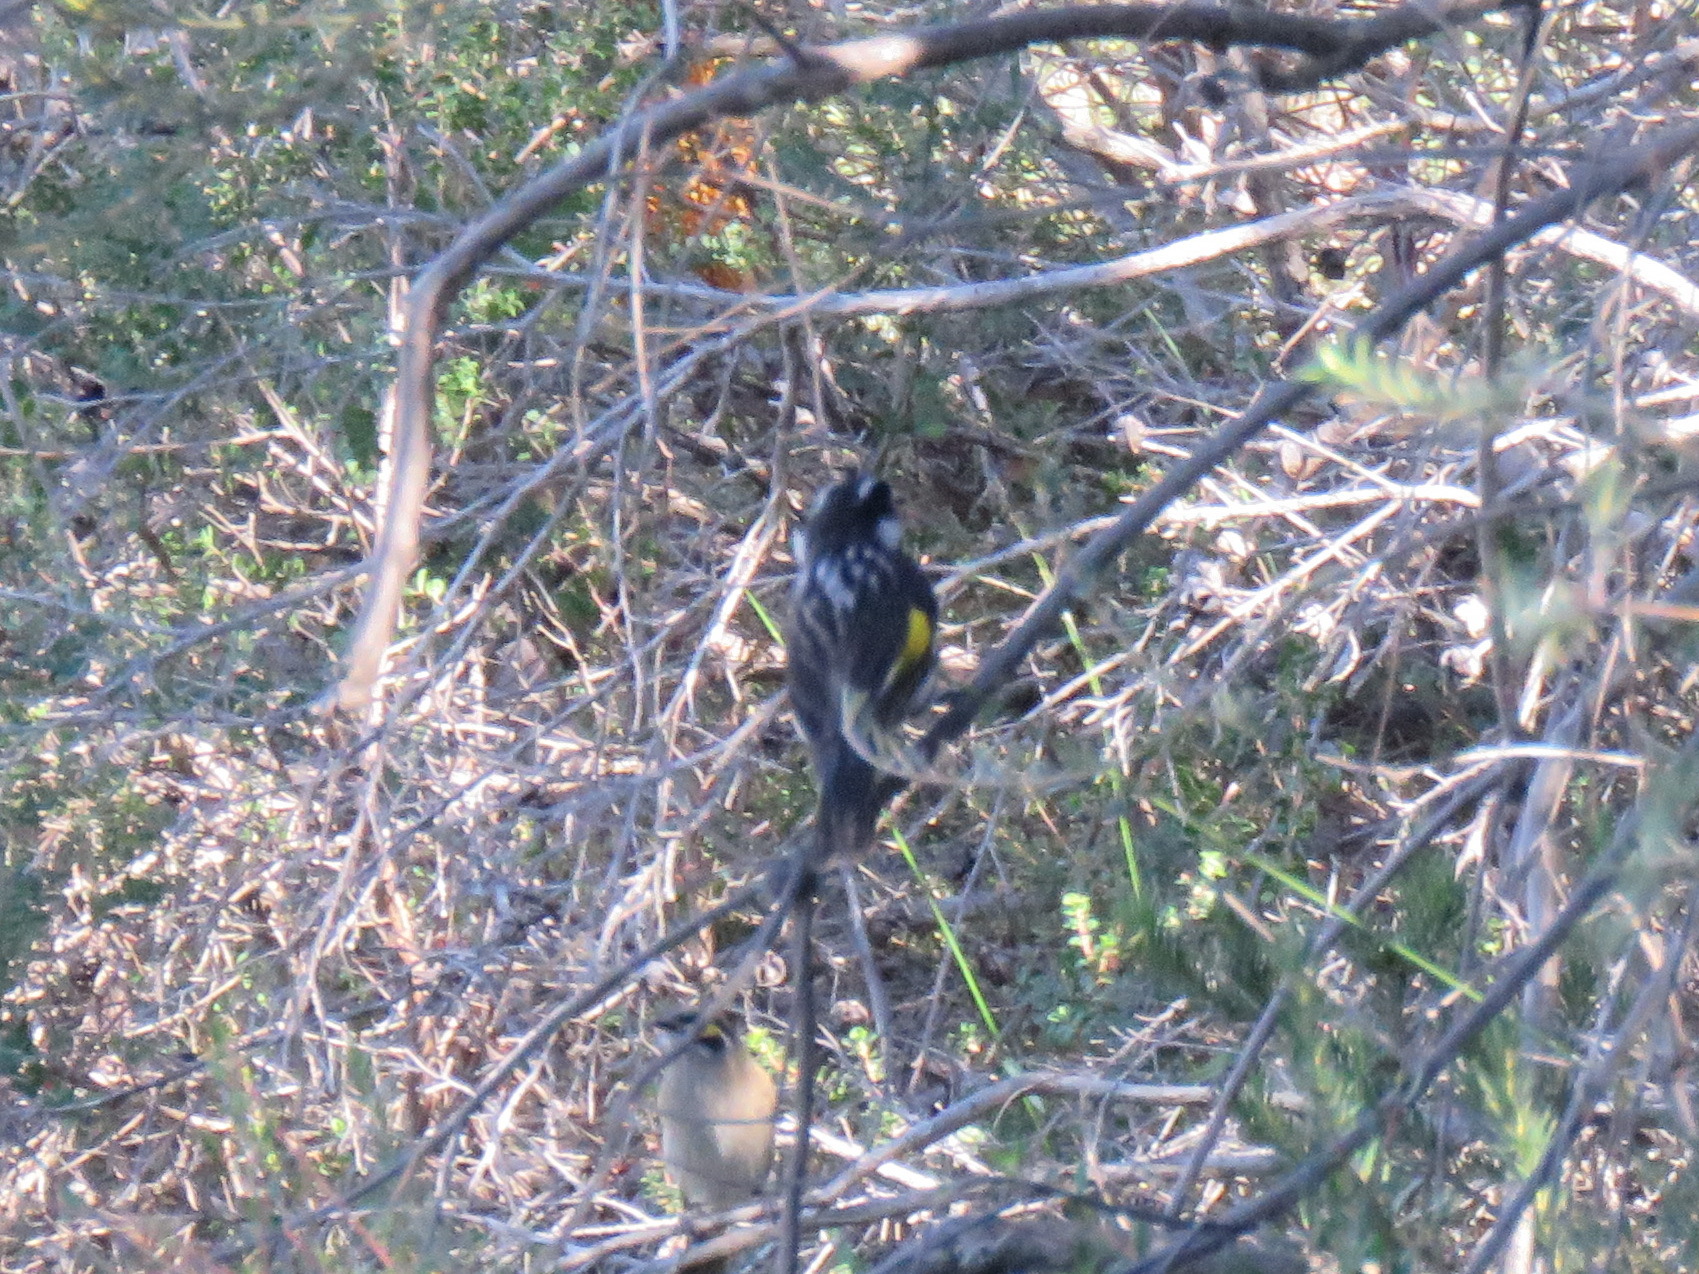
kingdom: Animalia
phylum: Chordata
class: Aves
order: Passeriformes
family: Meliphagidae
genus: Phylidonyris
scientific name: Phylidonyris novaehollandiae
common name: New holland honeyeater
